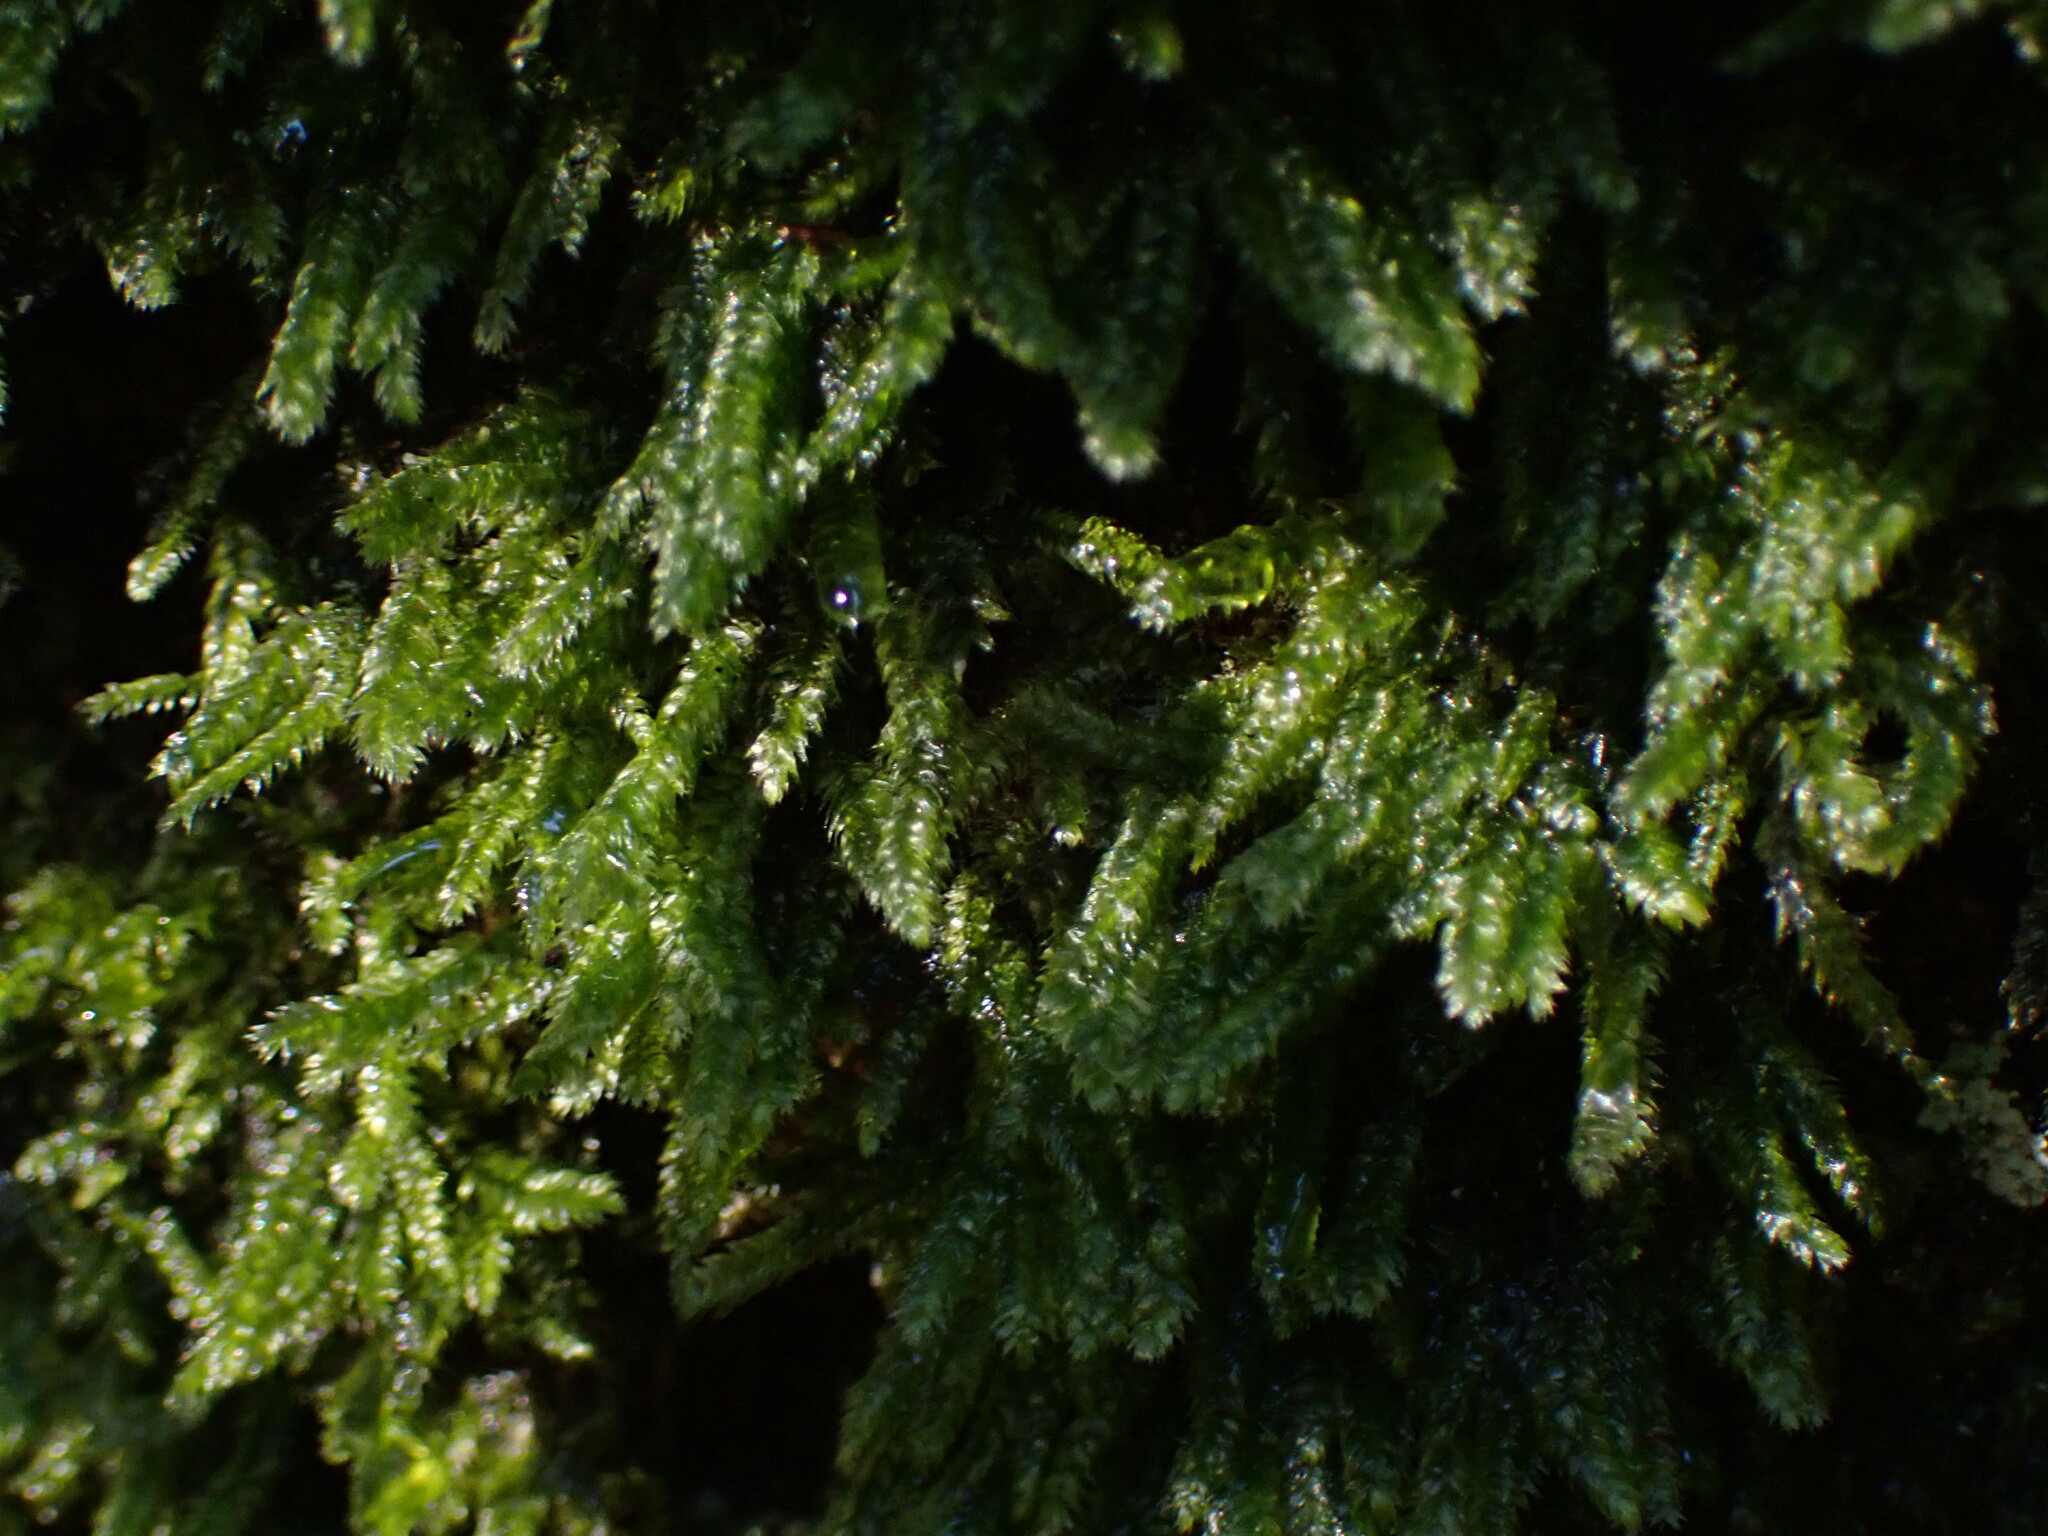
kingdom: Plantae
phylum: Bryophyta
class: Bryopsida
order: Hypnales
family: Plagiotheciaceae
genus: Pseudotaxiphyllum
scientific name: Pseudotaxiphyllum elegans
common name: Elegant silk moss
